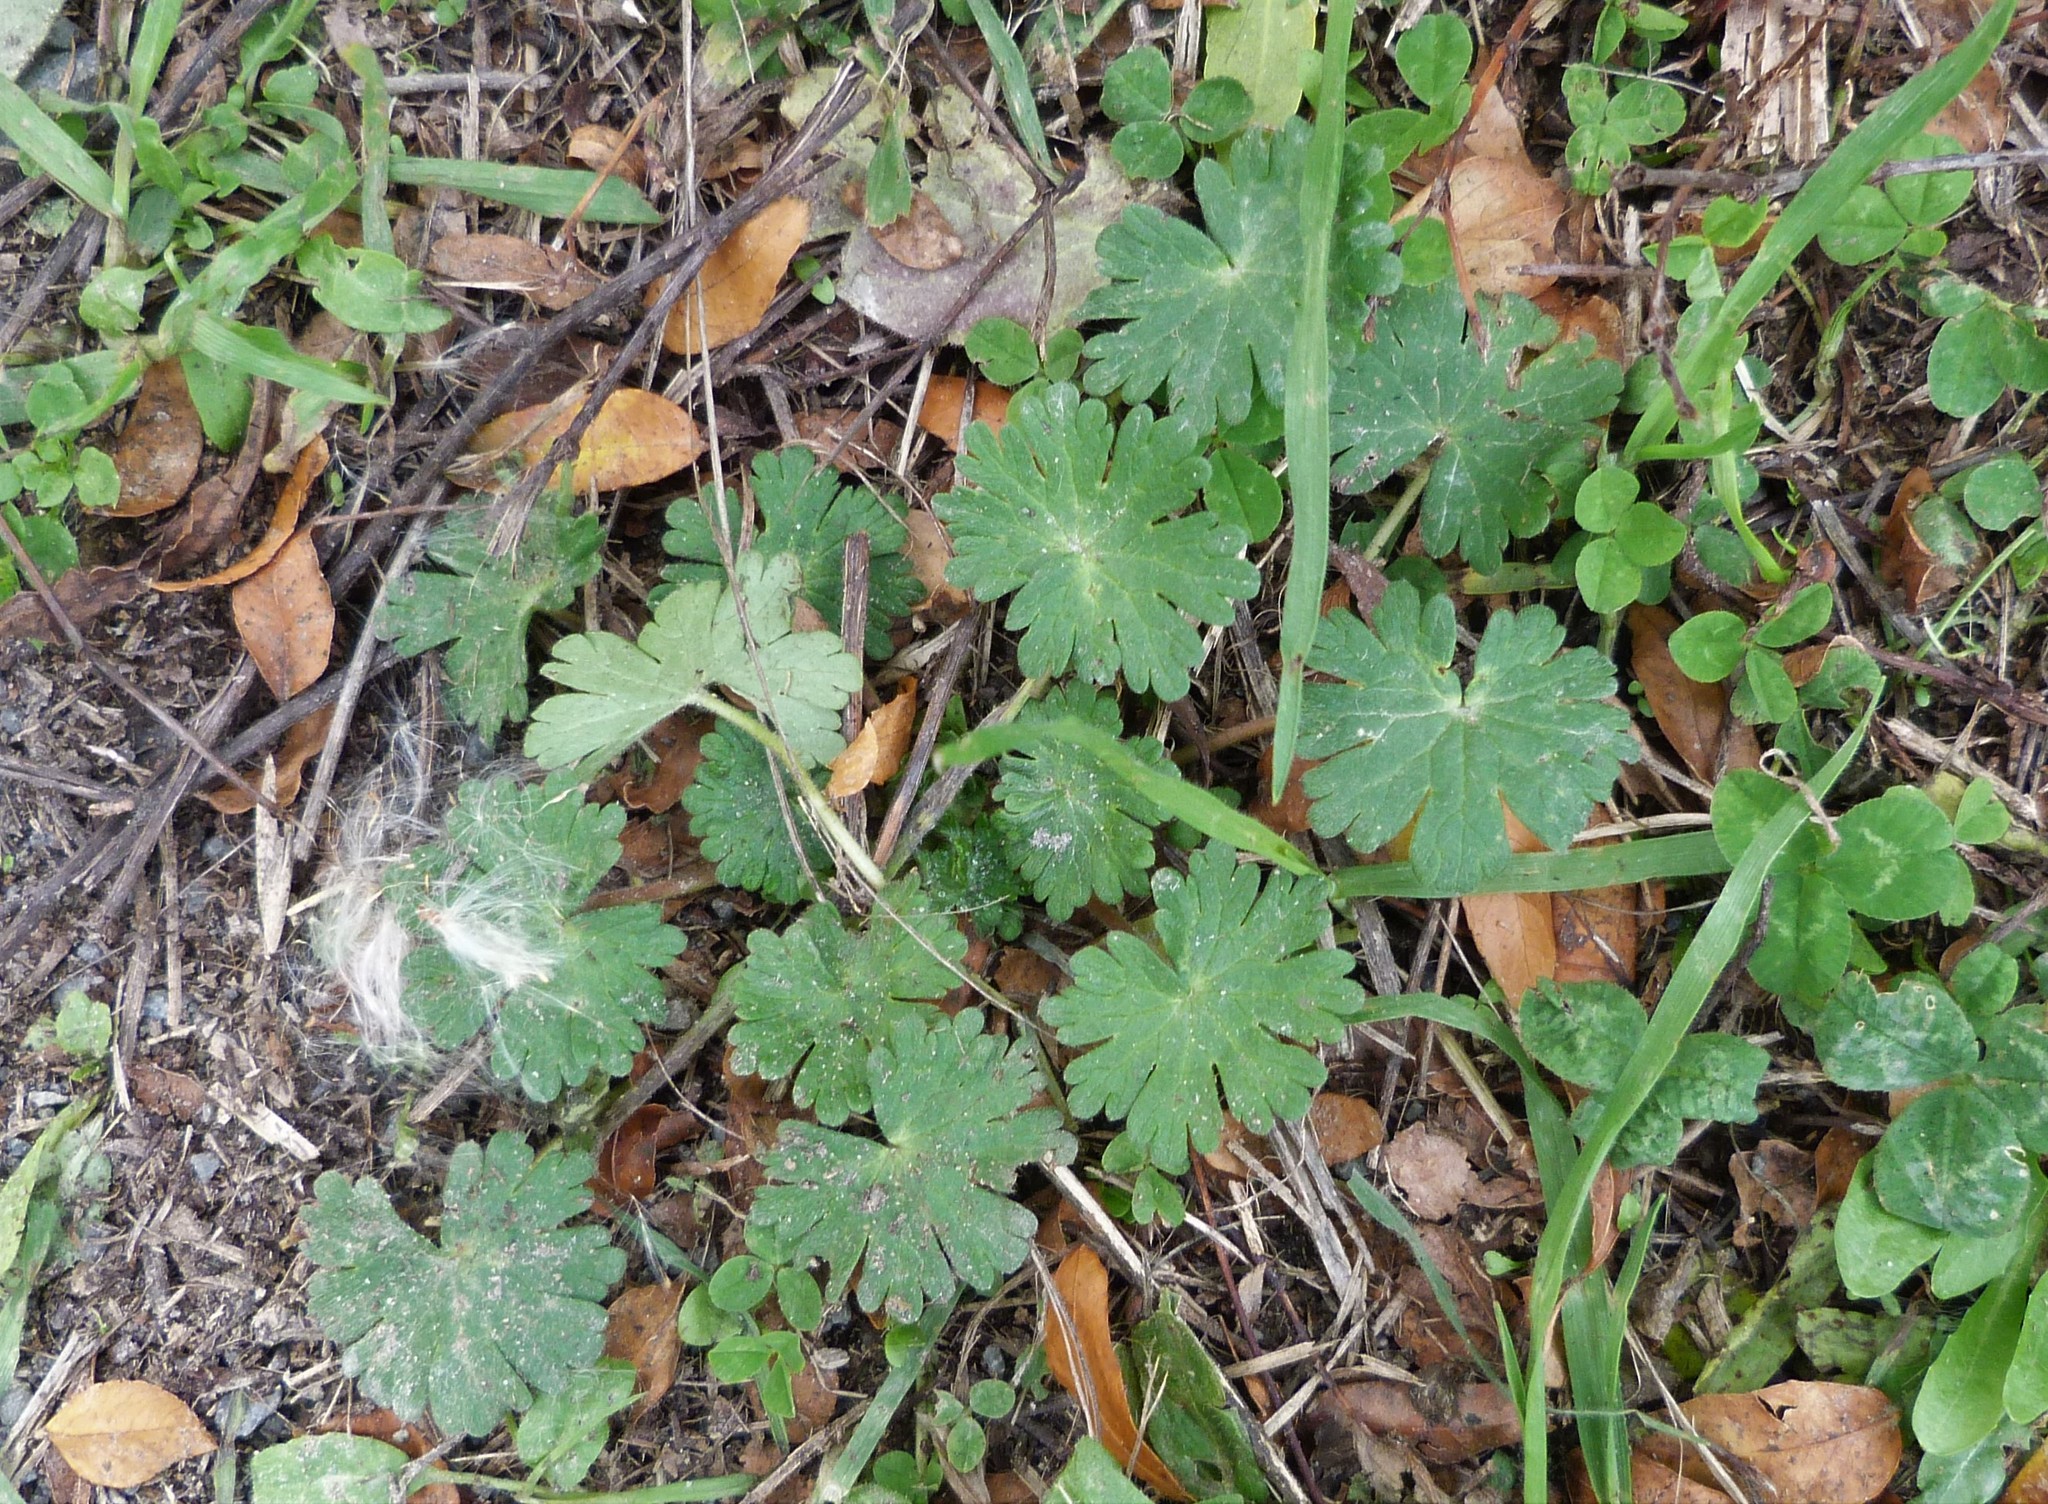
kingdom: Plantae
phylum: Tracheophyta
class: Magnoliopsida
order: Geraniales
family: Geraniaceae
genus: Geranium
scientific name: Geranium molle
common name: Dove's-foot crane's-bill
